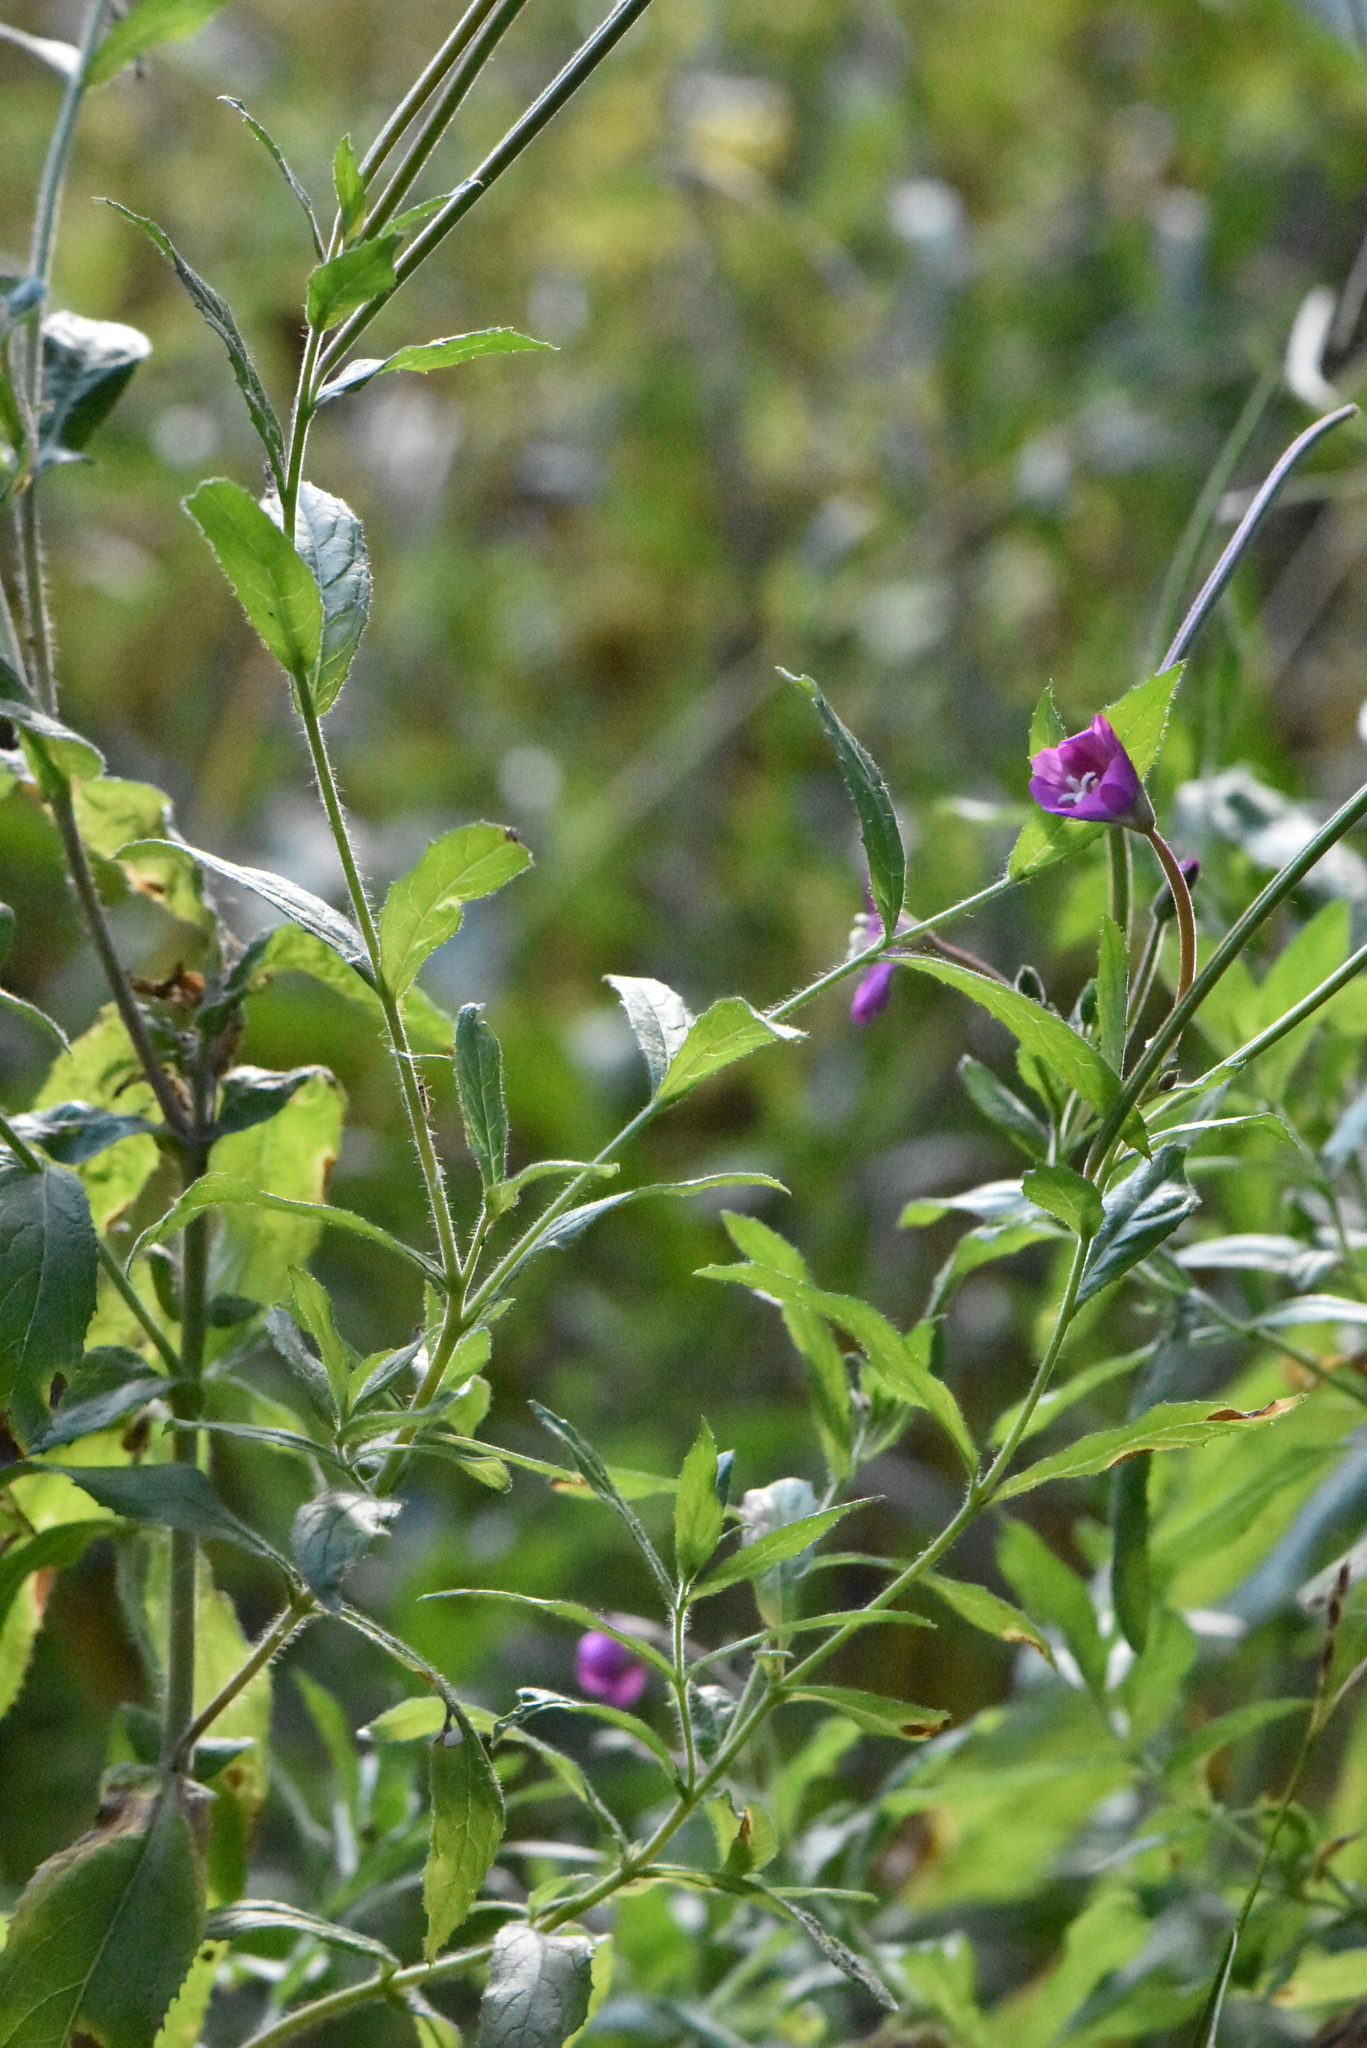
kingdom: Plantae
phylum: Tracheophyta
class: Magnoliopsida
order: Myrtales
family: Onagraceae
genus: Epilobium
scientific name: Epilobium hirsutum
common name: Great willowherb
